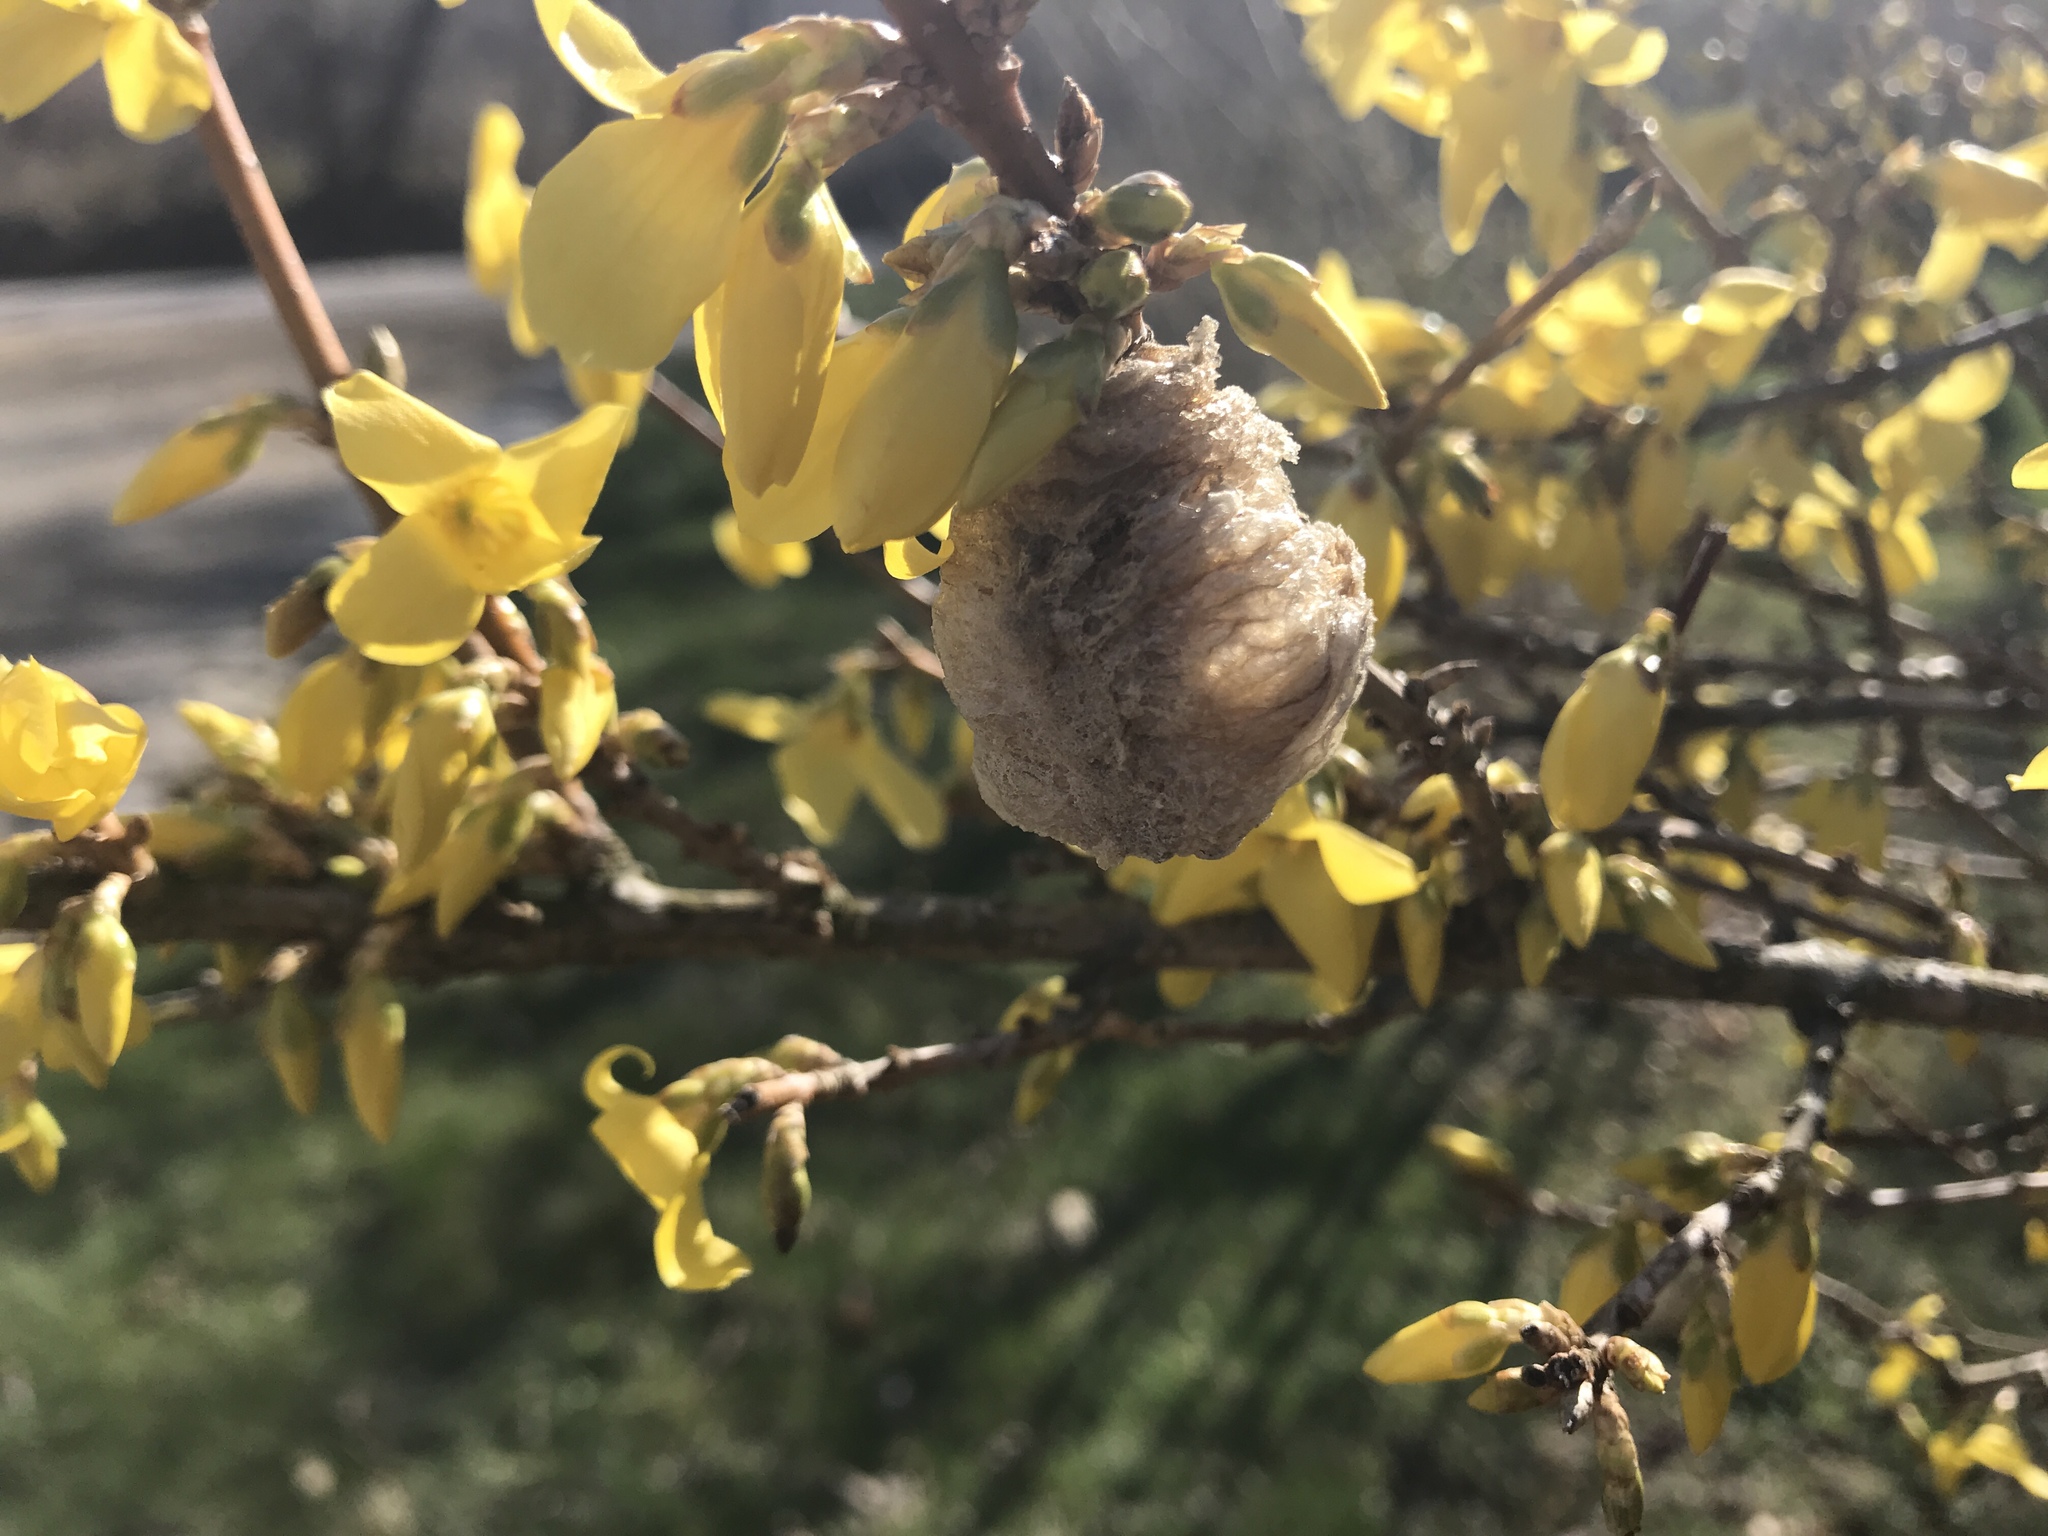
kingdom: Animalia
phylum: Arthropoda
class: Insecta
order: Mantodea
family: Mantidae
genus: Tenodera
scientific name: Tenodera sinensis
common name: Chinese mantis
